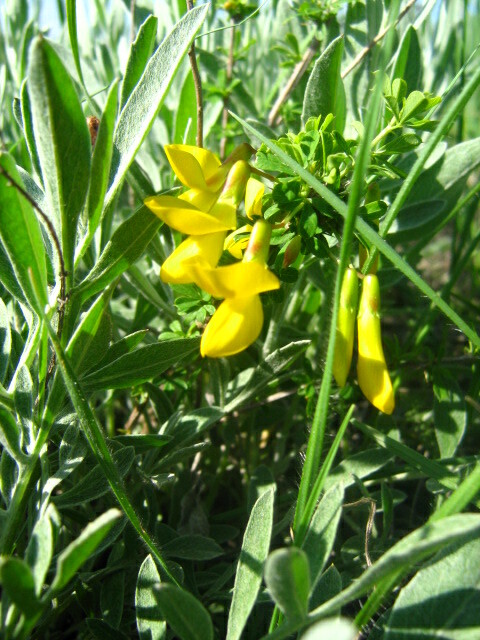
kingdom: Plantae
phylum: Tracheophyta
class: Magnoliopsida
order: Fabales
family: Fabaceae
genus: Caragana
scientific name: Caragana frutex
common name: Russian peashrub
